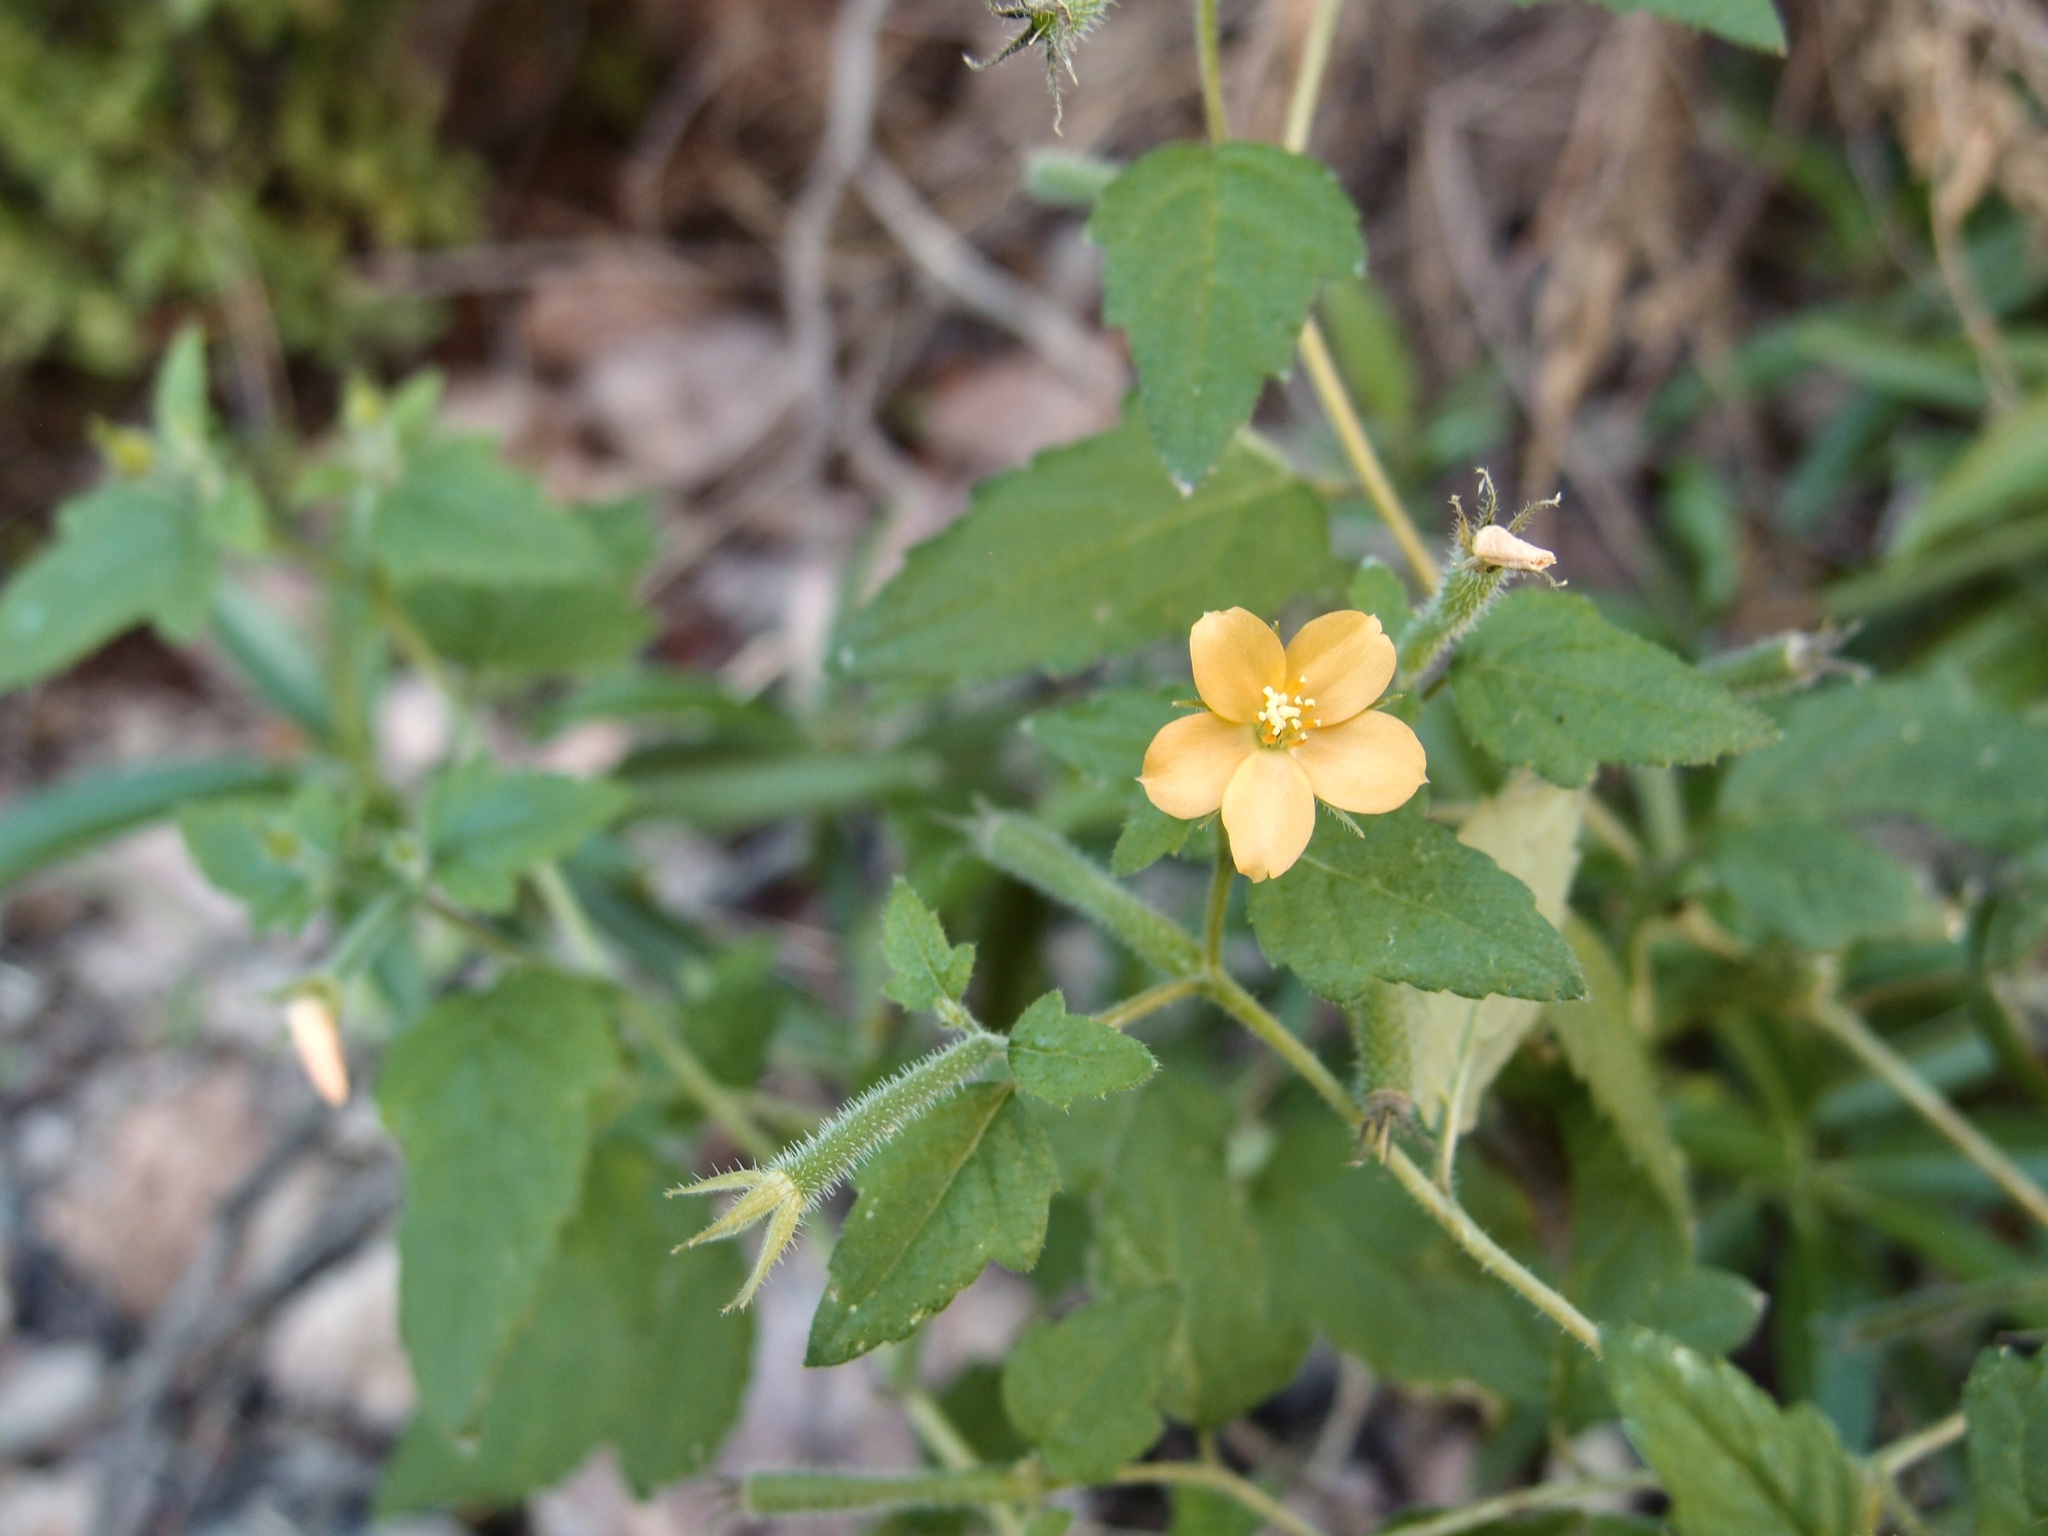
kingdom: Plantae
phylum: Tracheophyta
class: Magnoliopsida
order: Cornales
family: Loasaceae
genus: Mentzelia
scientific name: Mentzelia aspera
